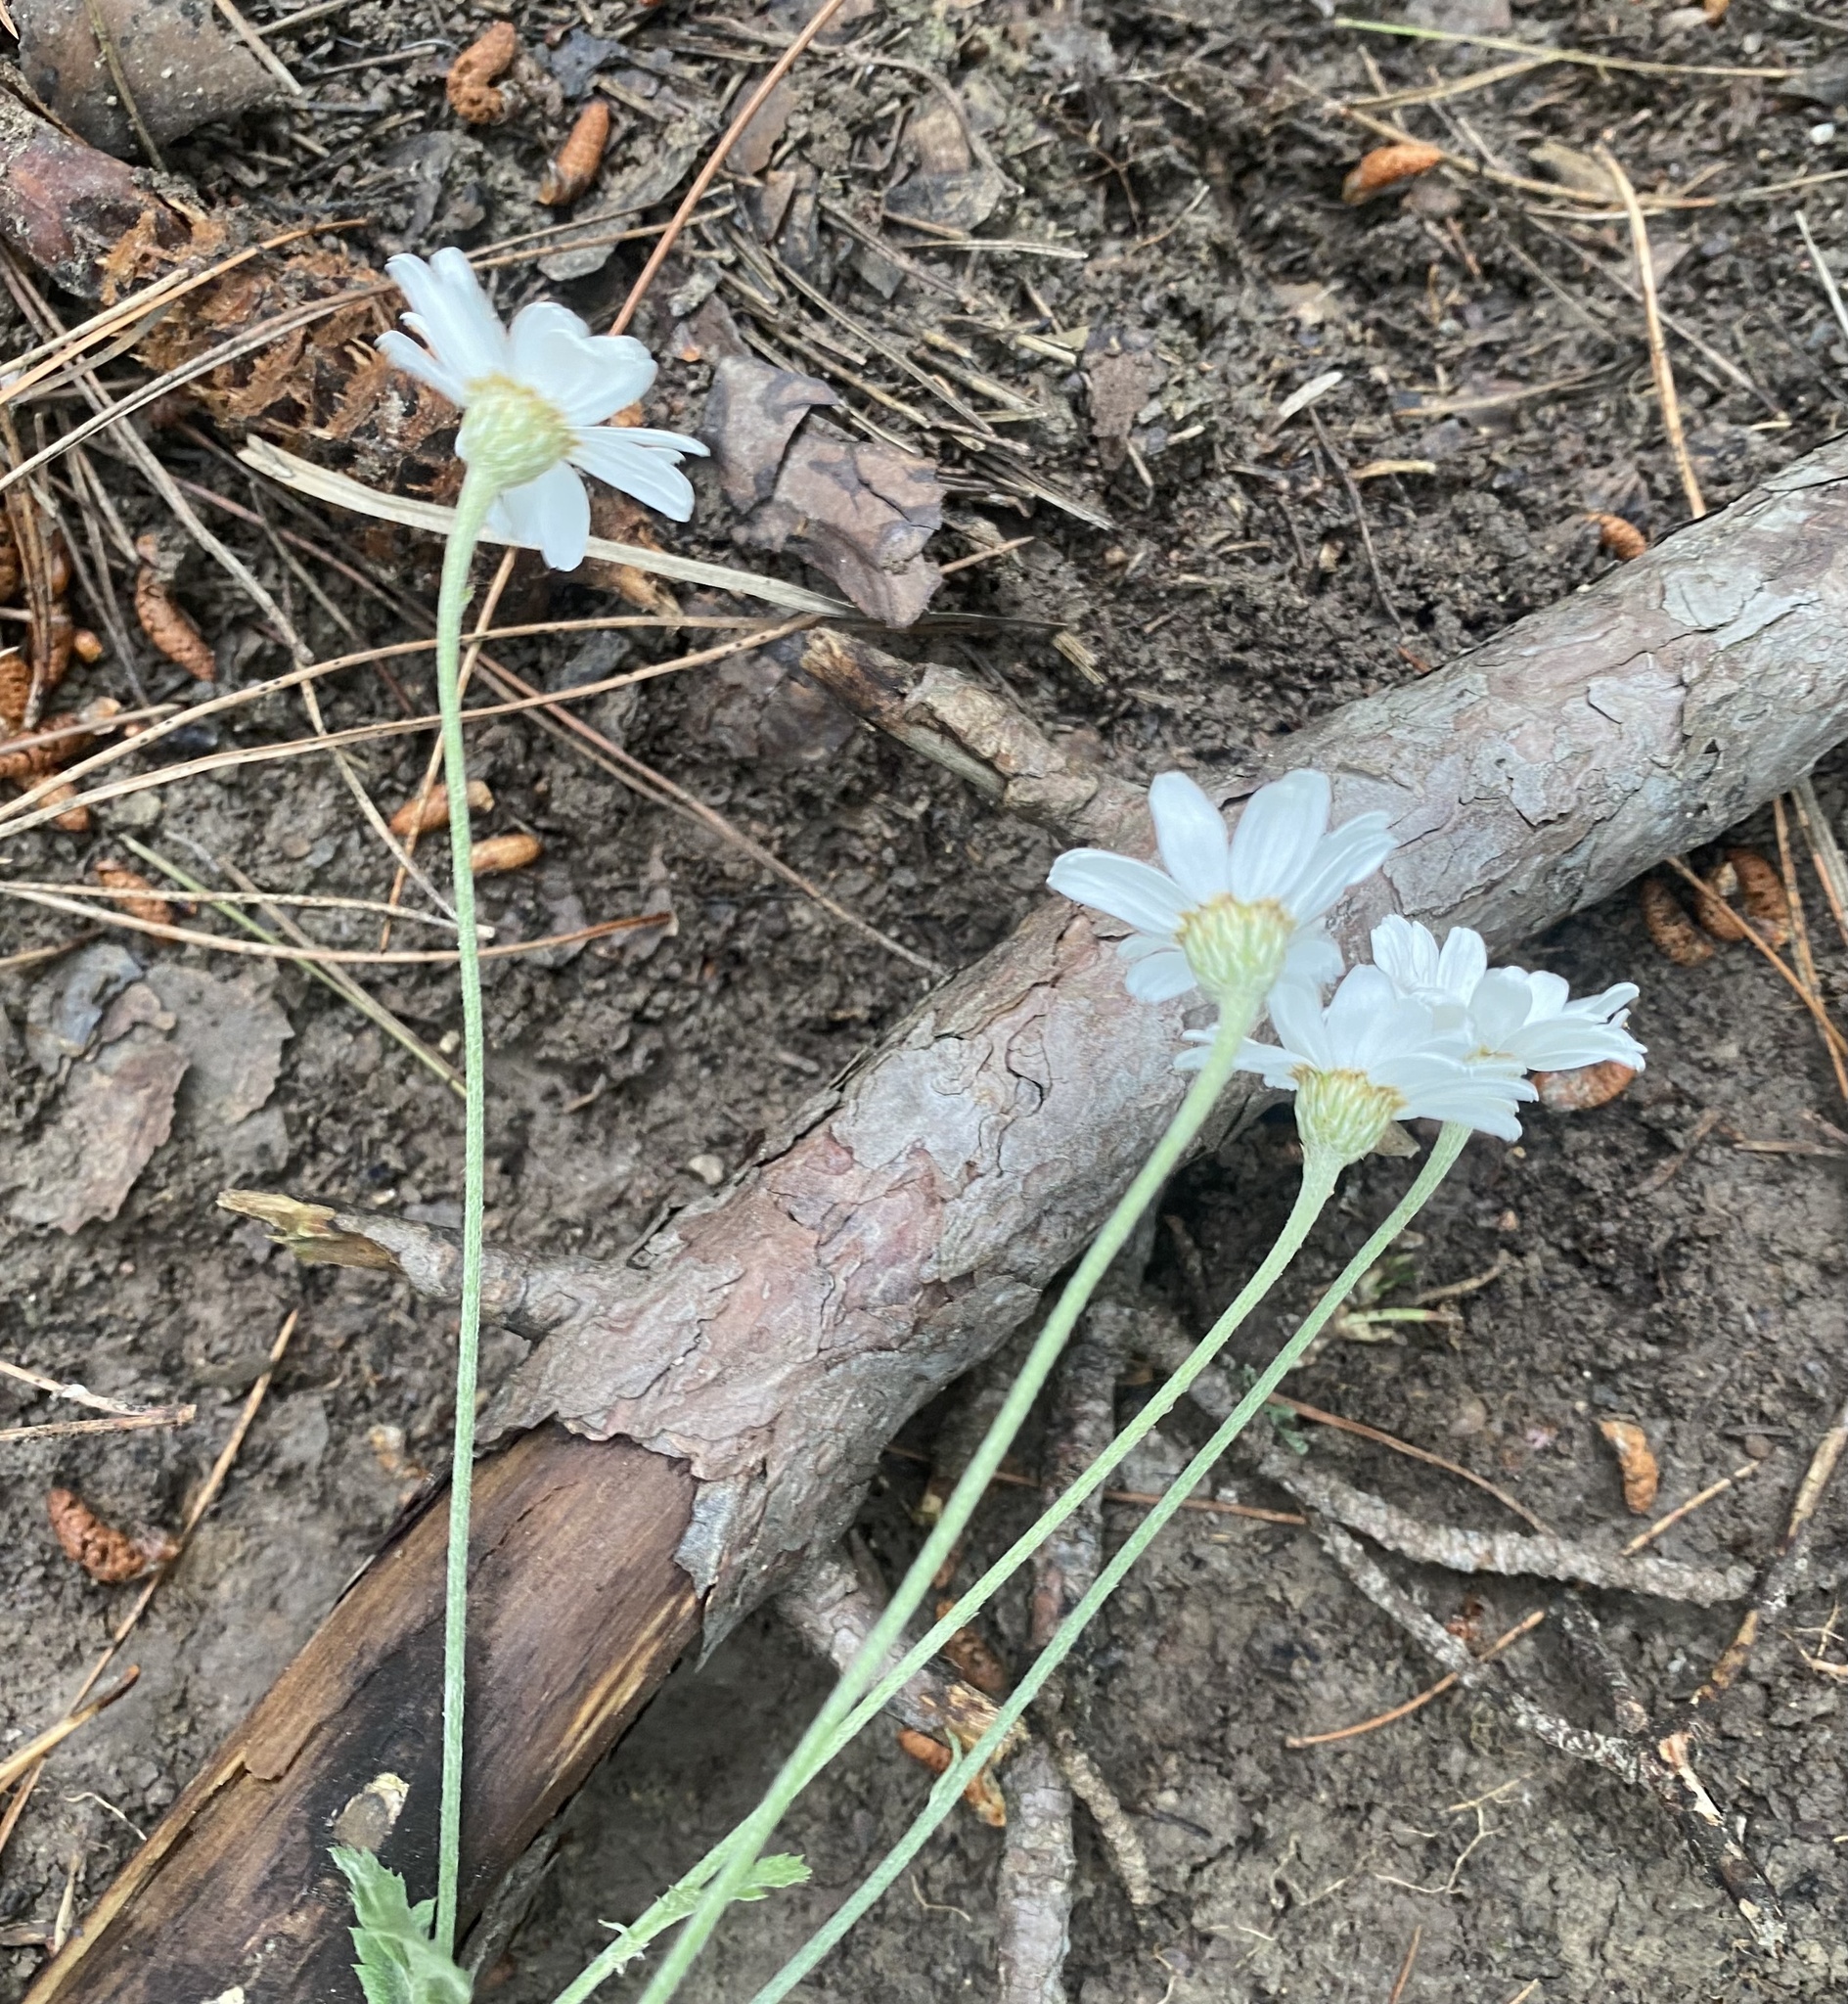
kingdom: Plantae
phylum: Tracheophyta
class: Magnoliopsida
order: Asterales
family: Asteraceae
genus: Tanacetum
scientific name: Tanacetum poteriifolium
